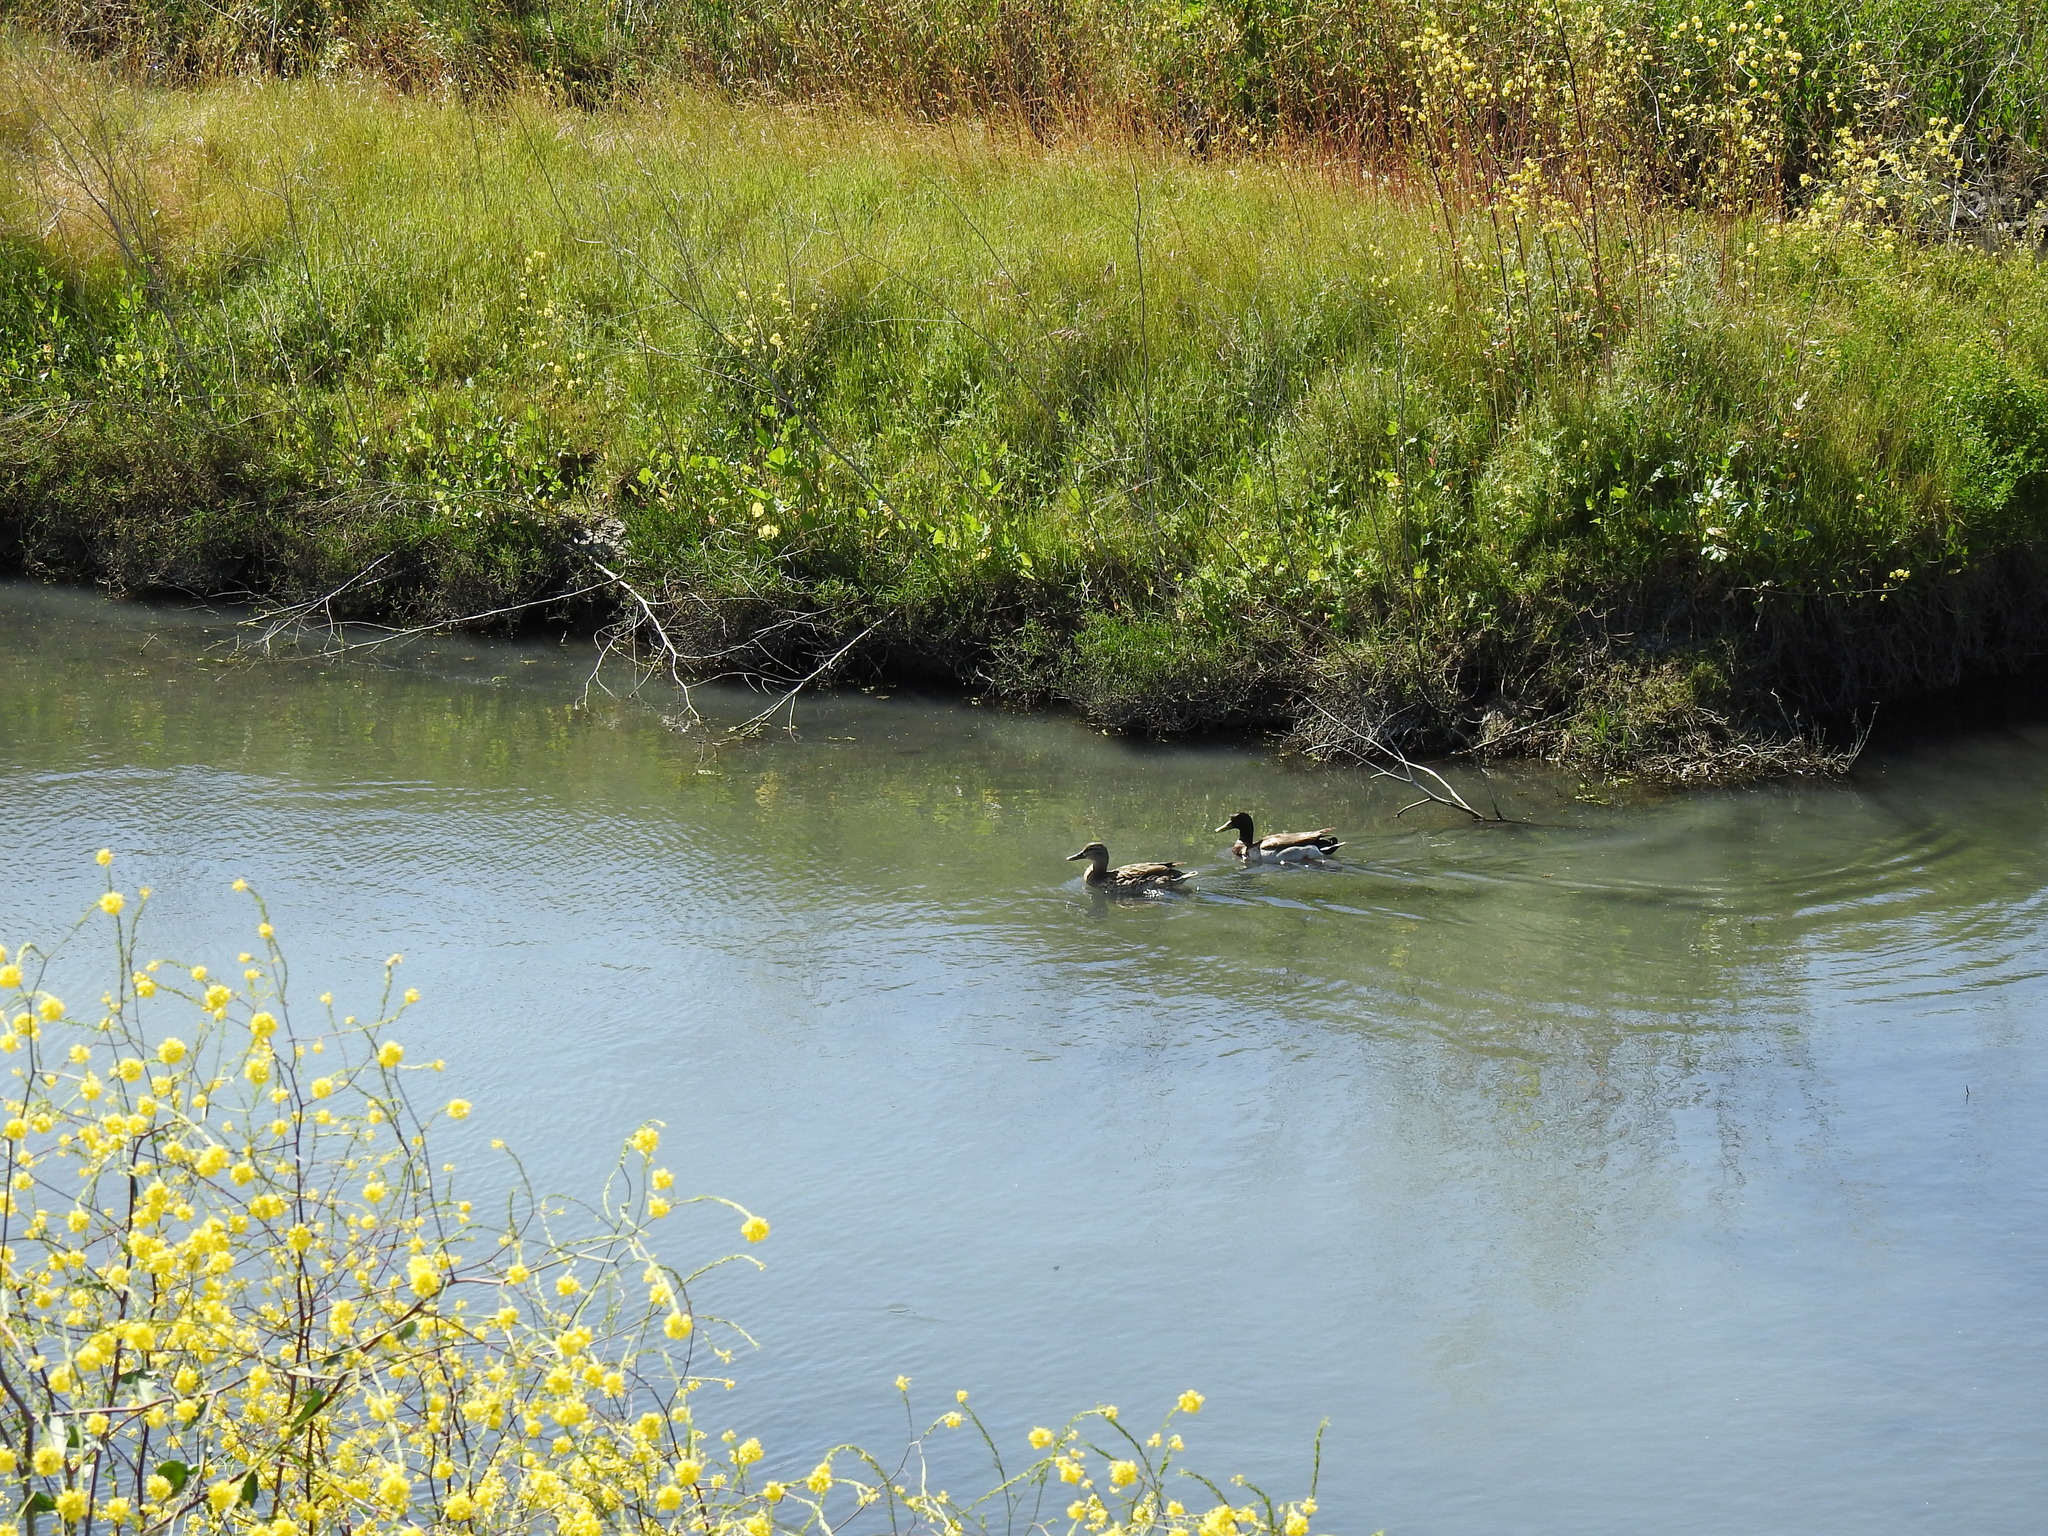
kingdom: Animalia
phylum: Chordata
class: Aves
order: Anseriformes
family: Anatidae
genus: Anas
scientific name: Anas platyrhynchos
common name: Mallard
